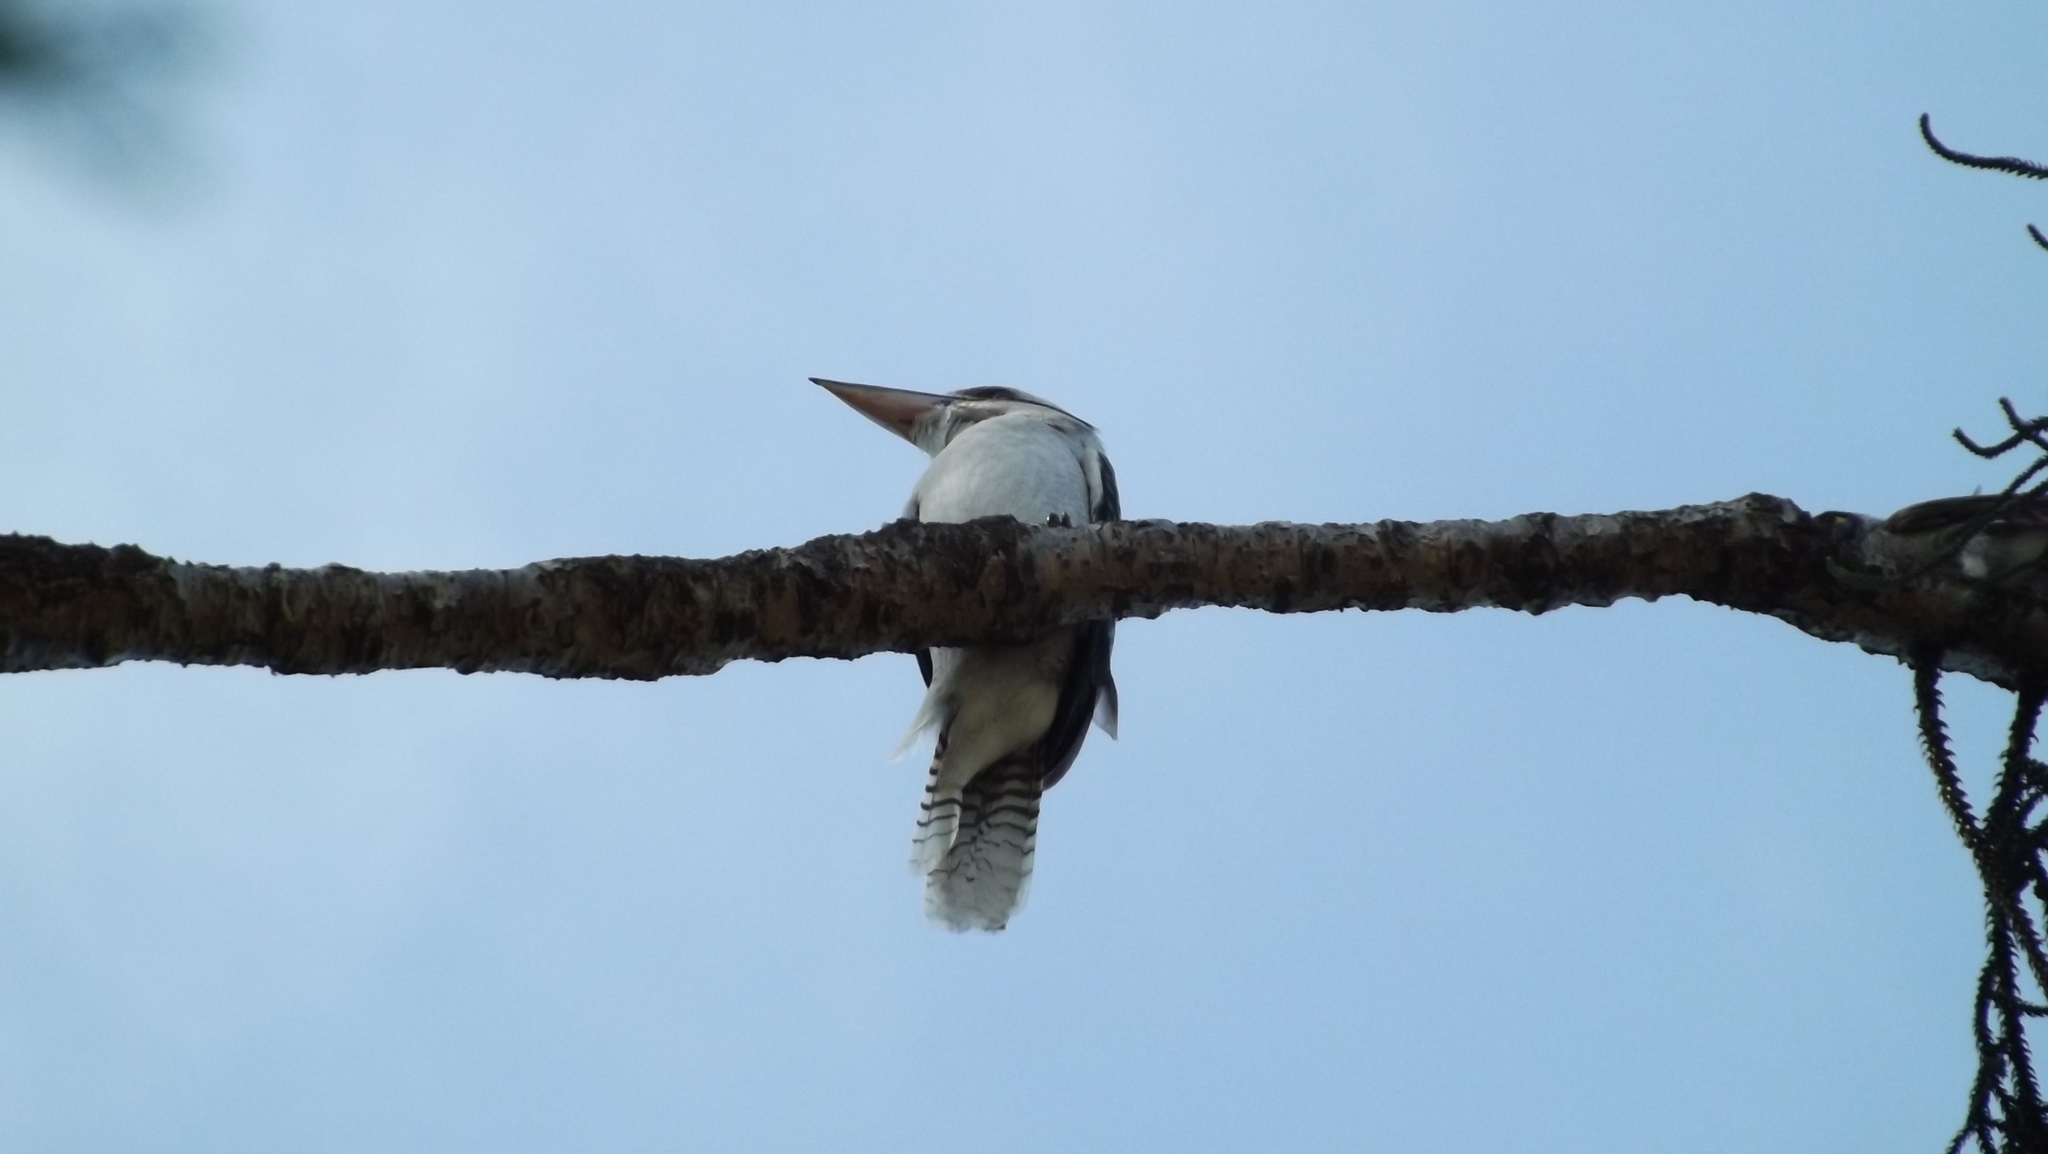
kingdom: Animalia
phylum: Chordata
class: Aves
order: Coraciiformes
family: Alcedinidae
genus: Dacelo
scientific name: Dacelo novaeguineae
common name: Laughing kookaburra
